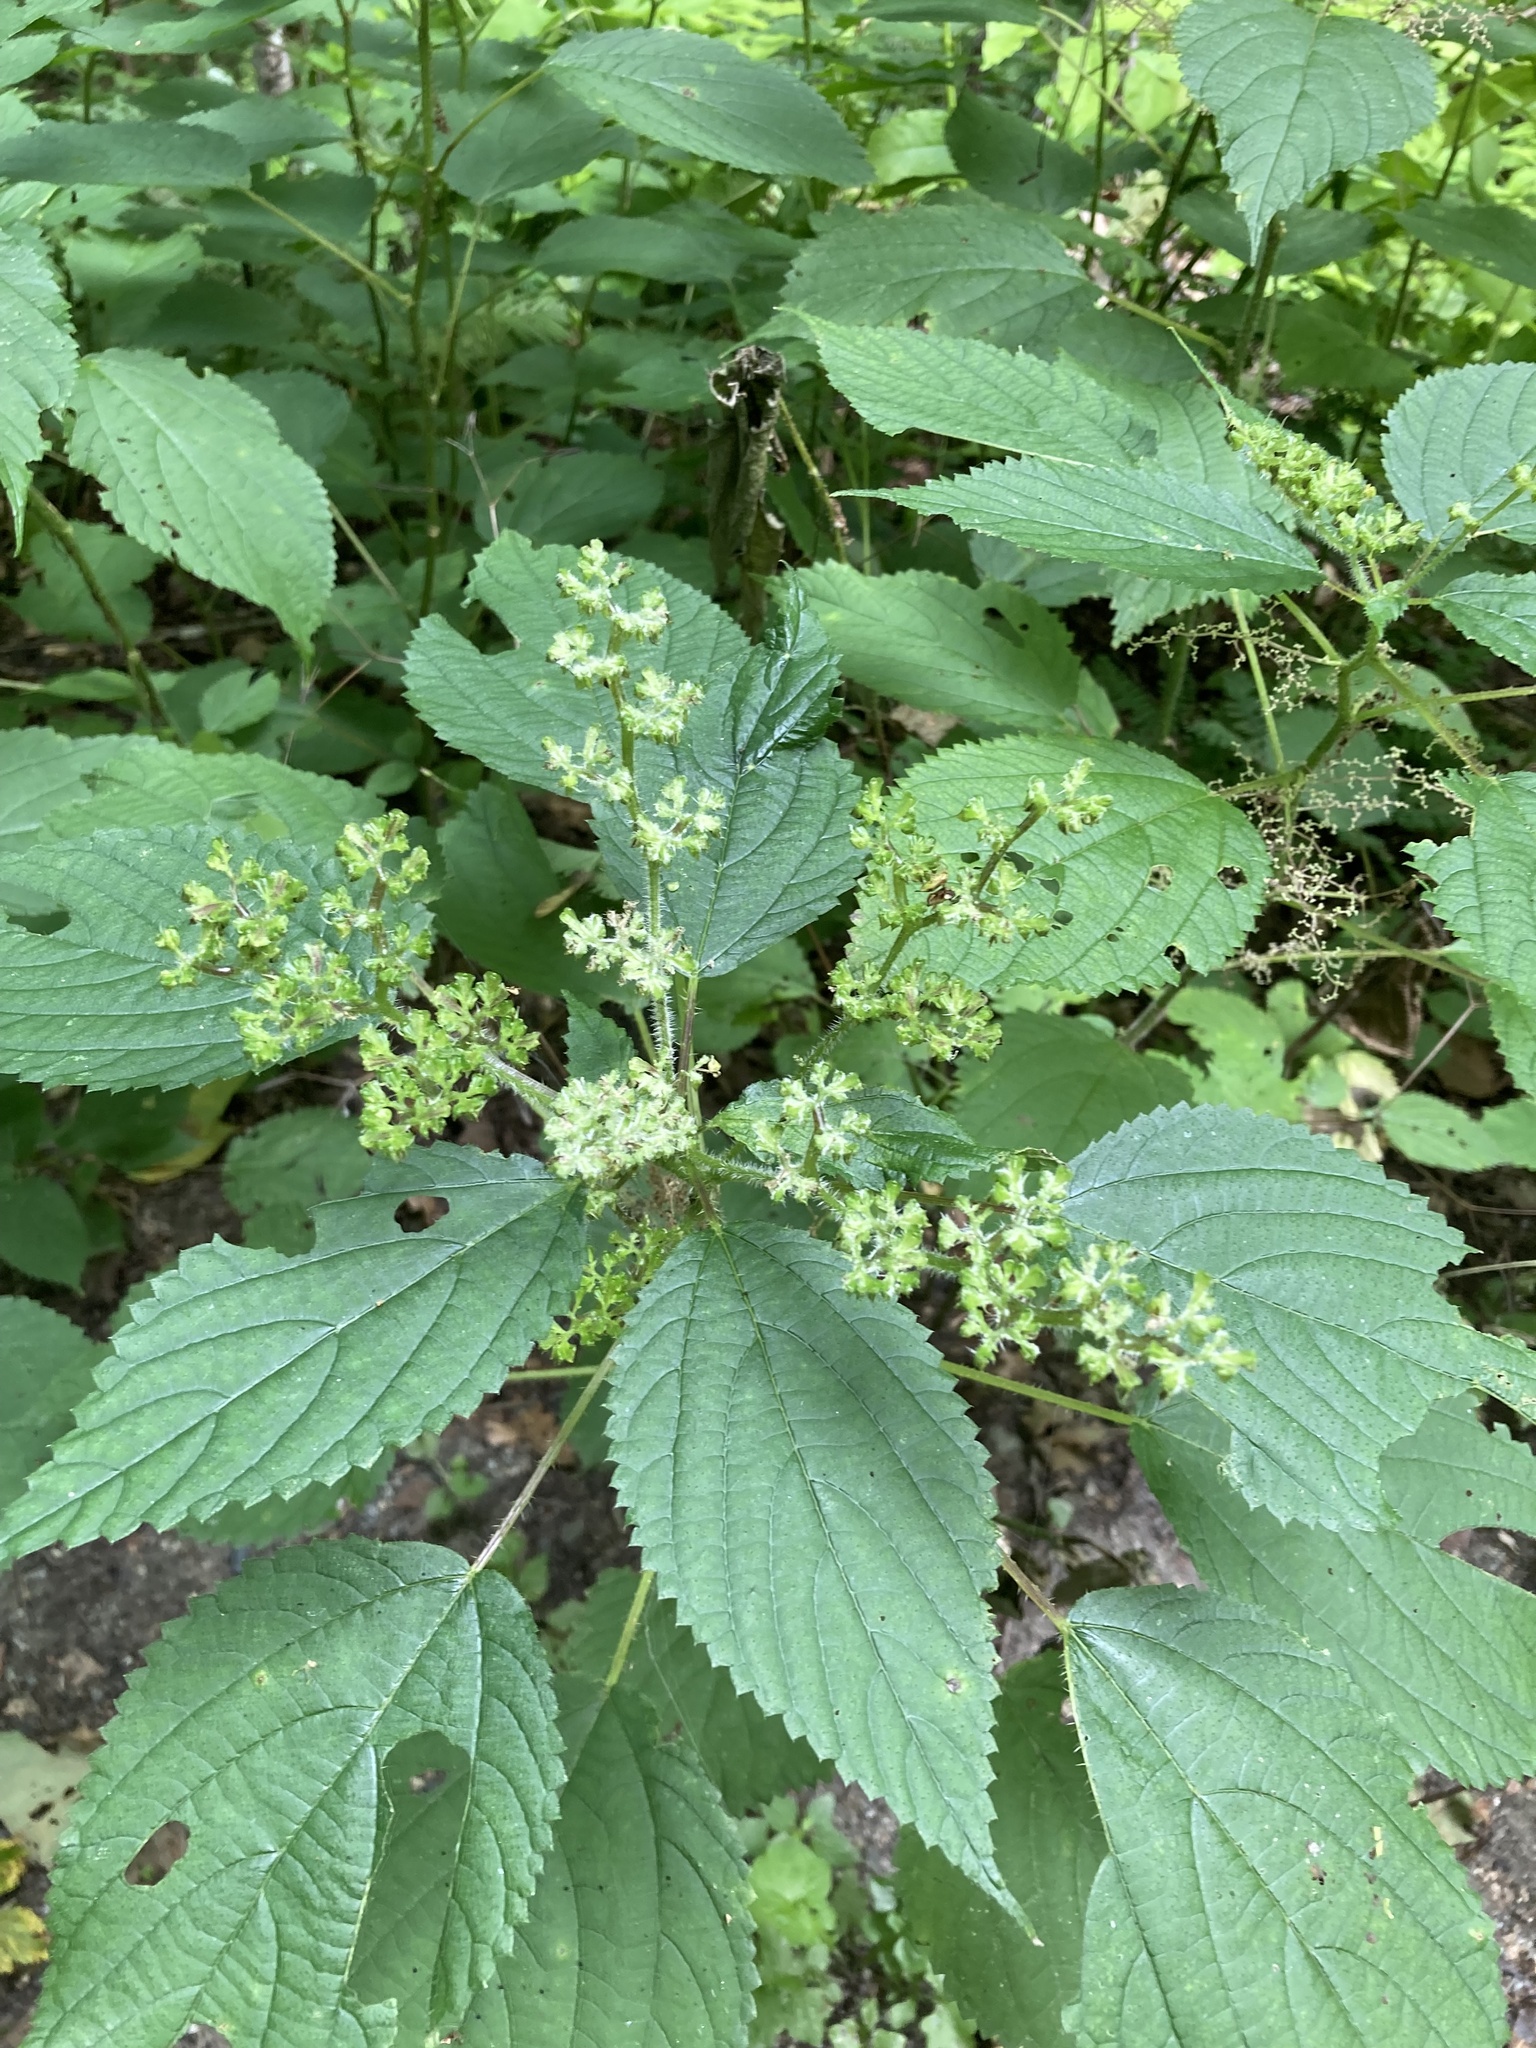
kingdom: Plantae
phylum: Tracheophyta
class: Magnoliopsida
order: Rosales
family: Urticaceae
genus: Laportea
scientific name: Laportea canadensis
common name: Canada nettle
